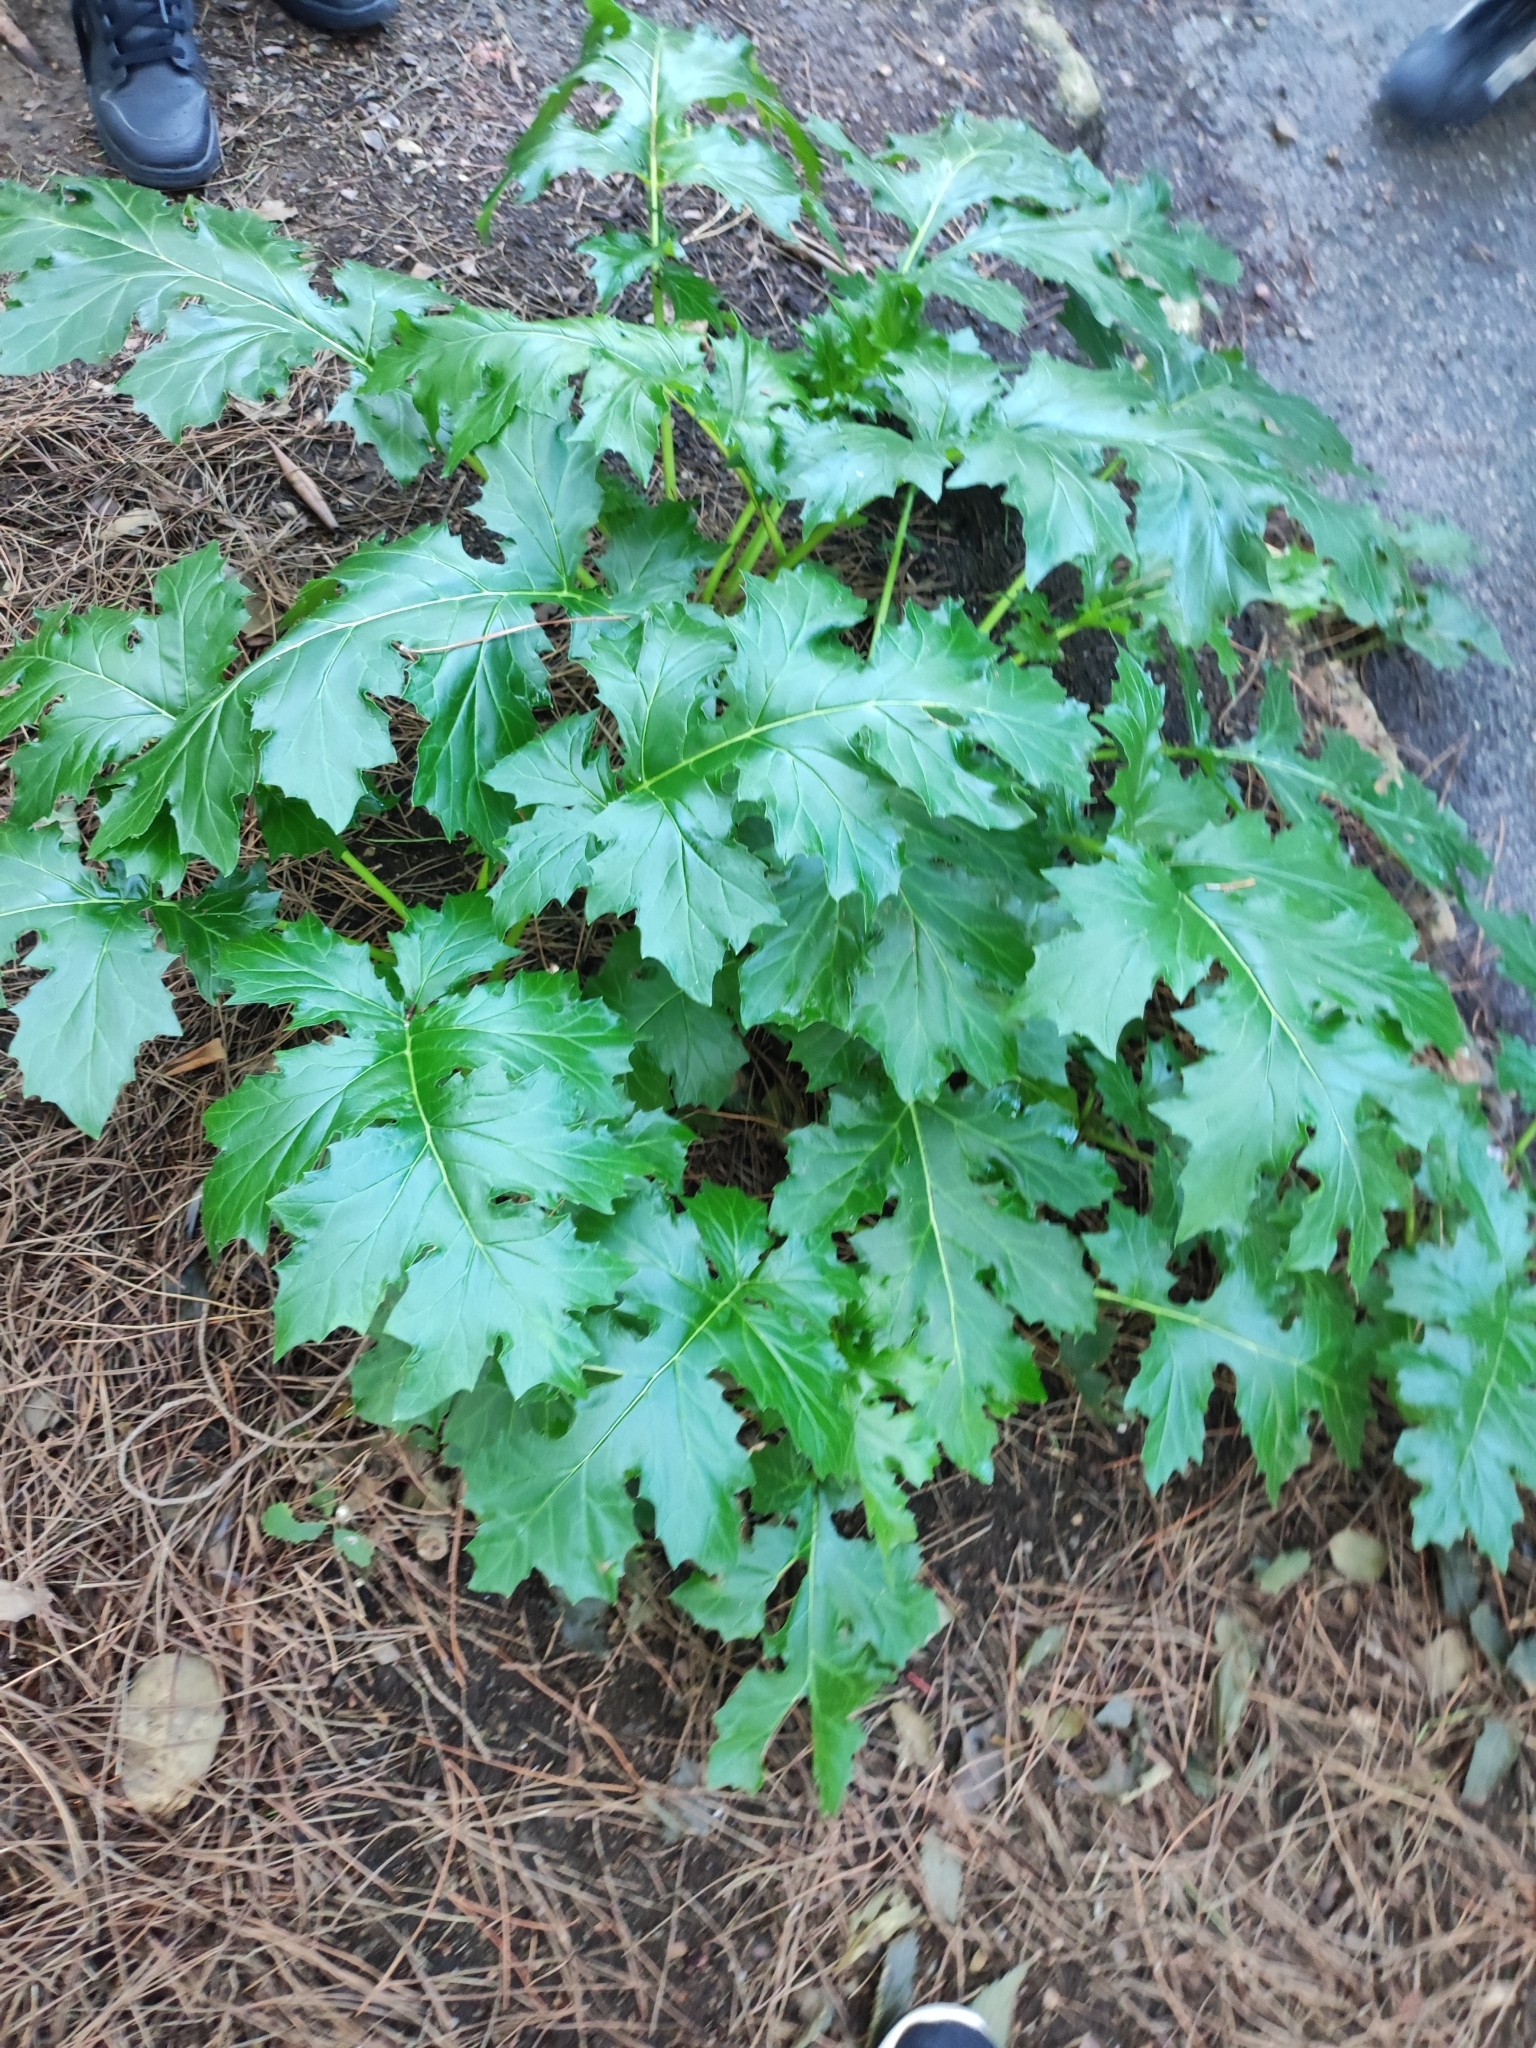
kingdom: Plantae
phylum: Tracheophyta
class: Magnoliopsida
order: Lamiales
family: Acanthaceae
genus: Acanthus
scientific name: Acanthus mollis
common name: Bear's-breech
